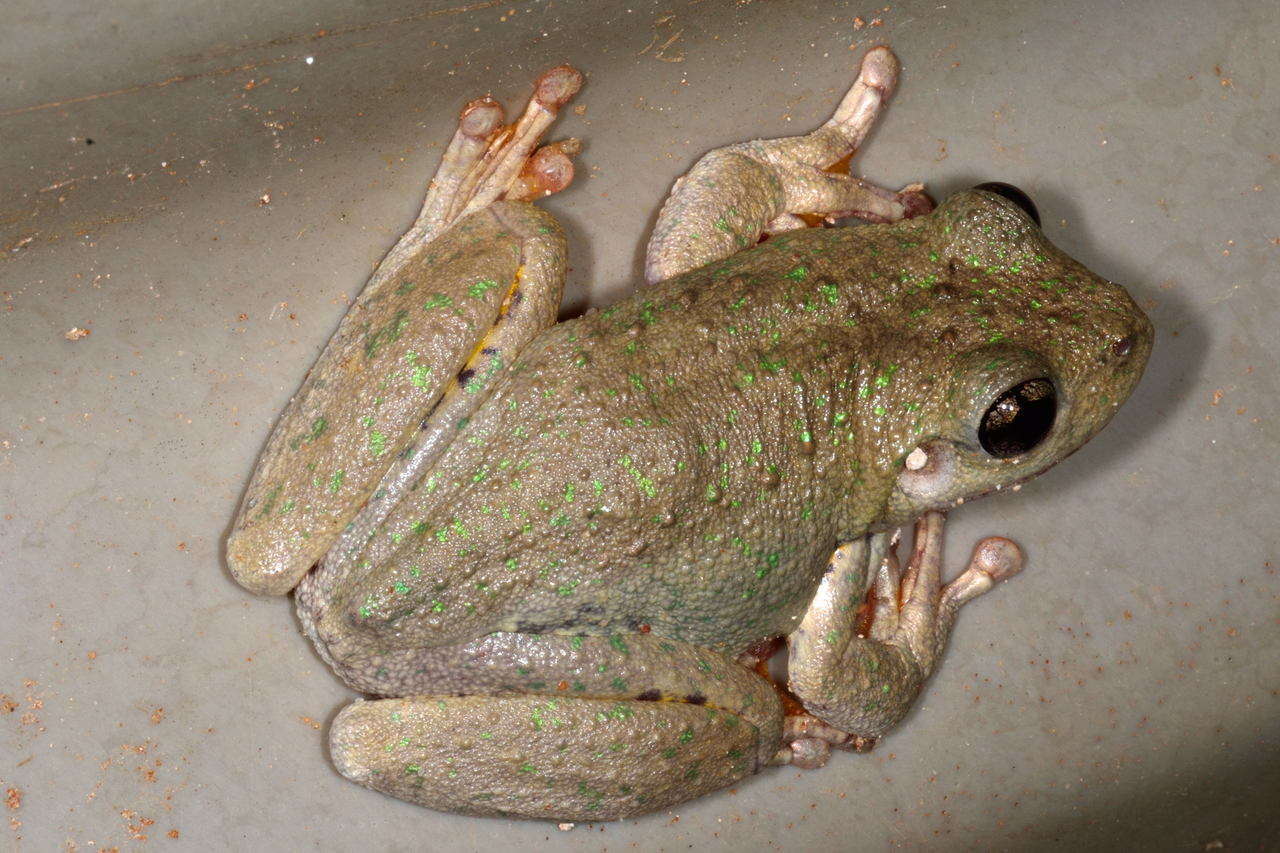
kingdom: Animalia
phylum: Chordata
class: Amphibia
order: Anura
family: Pelodryadidae
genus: Litoria
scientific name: Litoria peronii
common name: Emerald spotted treefrog
